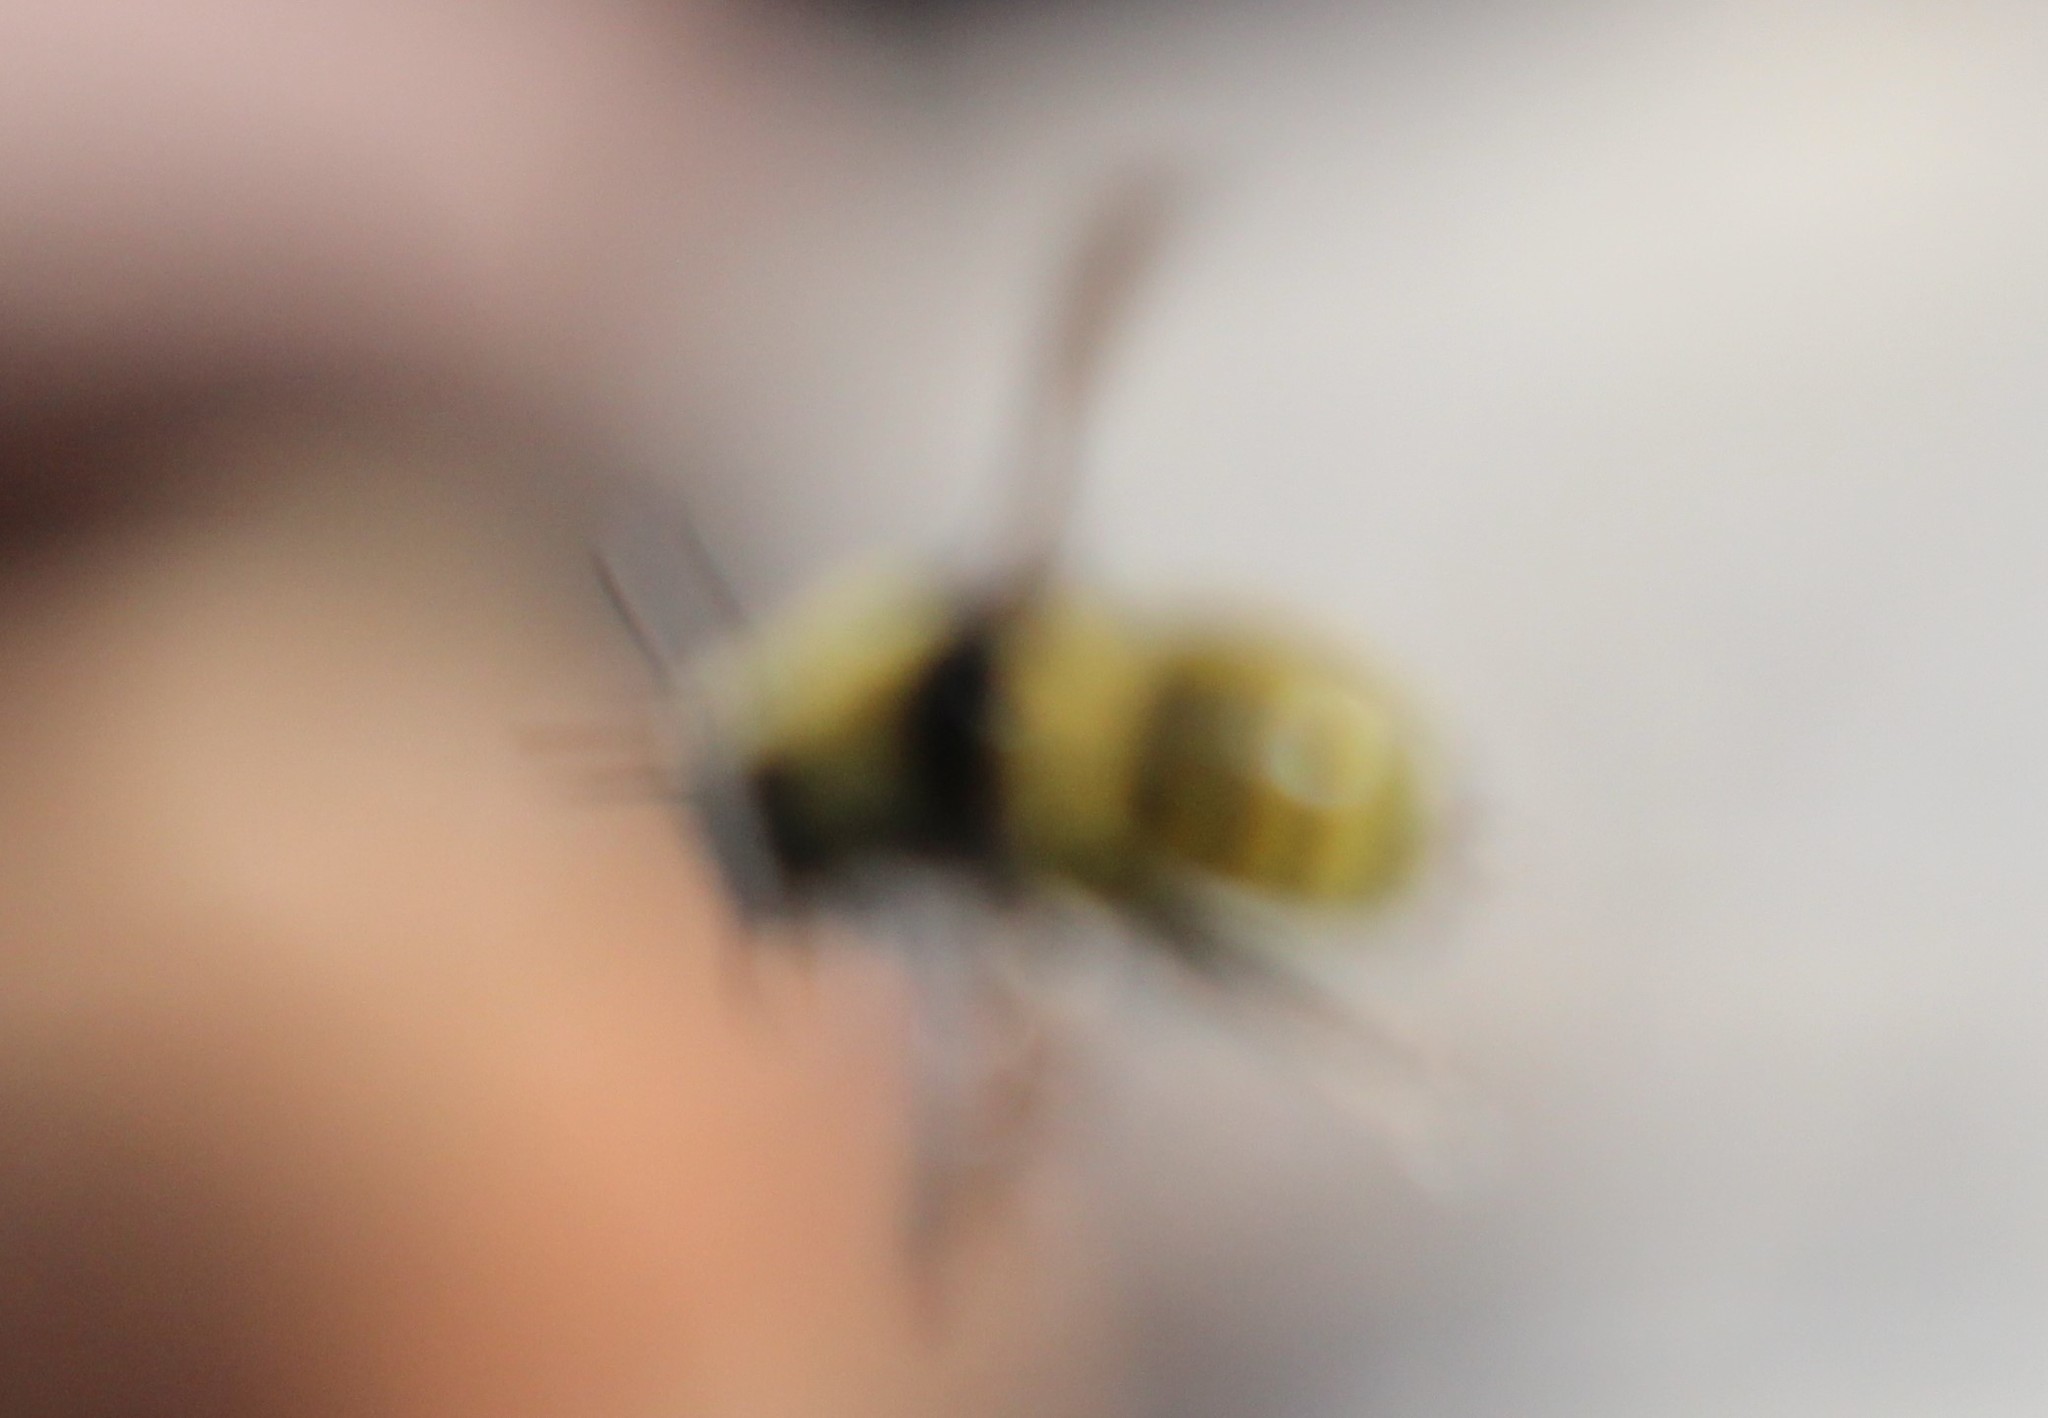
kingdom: Animalia
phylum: Arthropoda
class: Insecta
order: Hymenoptera
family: Apidae
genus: Bombus
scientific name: Bombus borealis
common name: Northern amber bumble bee
